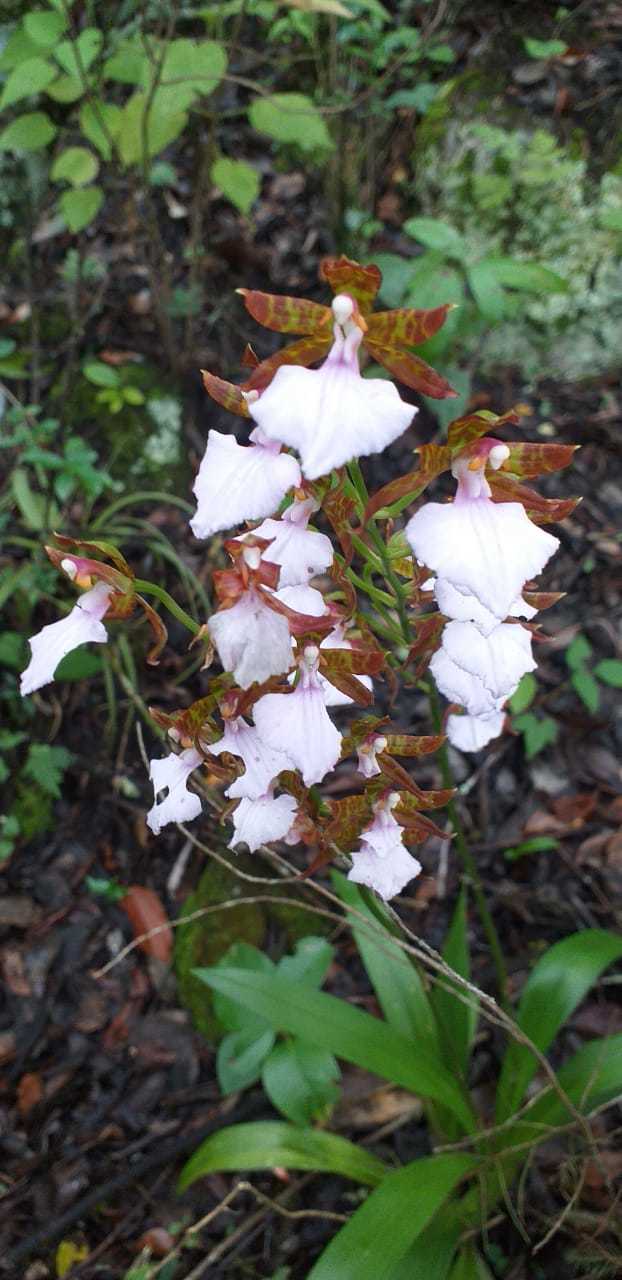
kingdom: Plantae
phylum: Tracheophyta
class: Liliopsida
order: Asparagales
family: Orchidaceae
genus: Rhynchostele
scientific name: Rhynchostele bictoniensis
